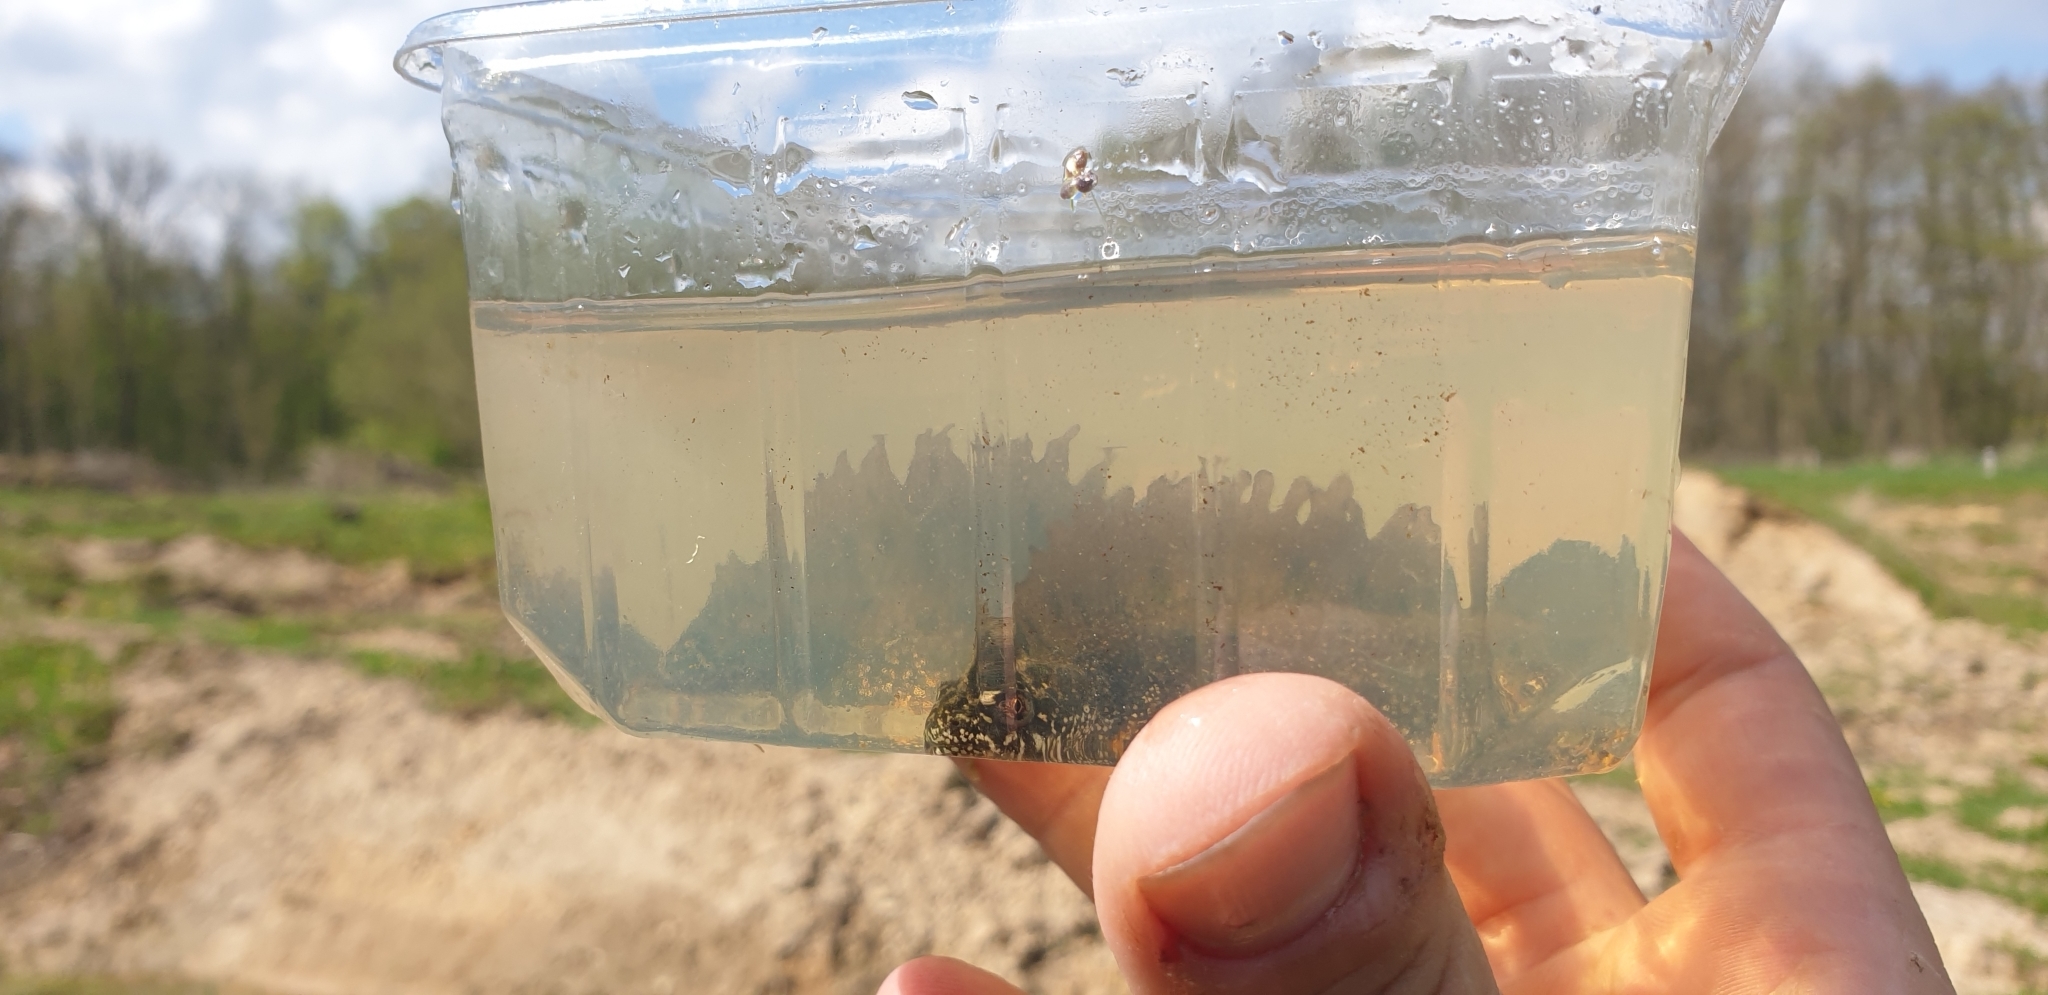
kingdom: Animalia
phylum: Chordata
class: Amphibia
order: Caudata
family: Salamandridae
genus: Triturus
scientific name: Triturus cristatus
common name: Crested newt
